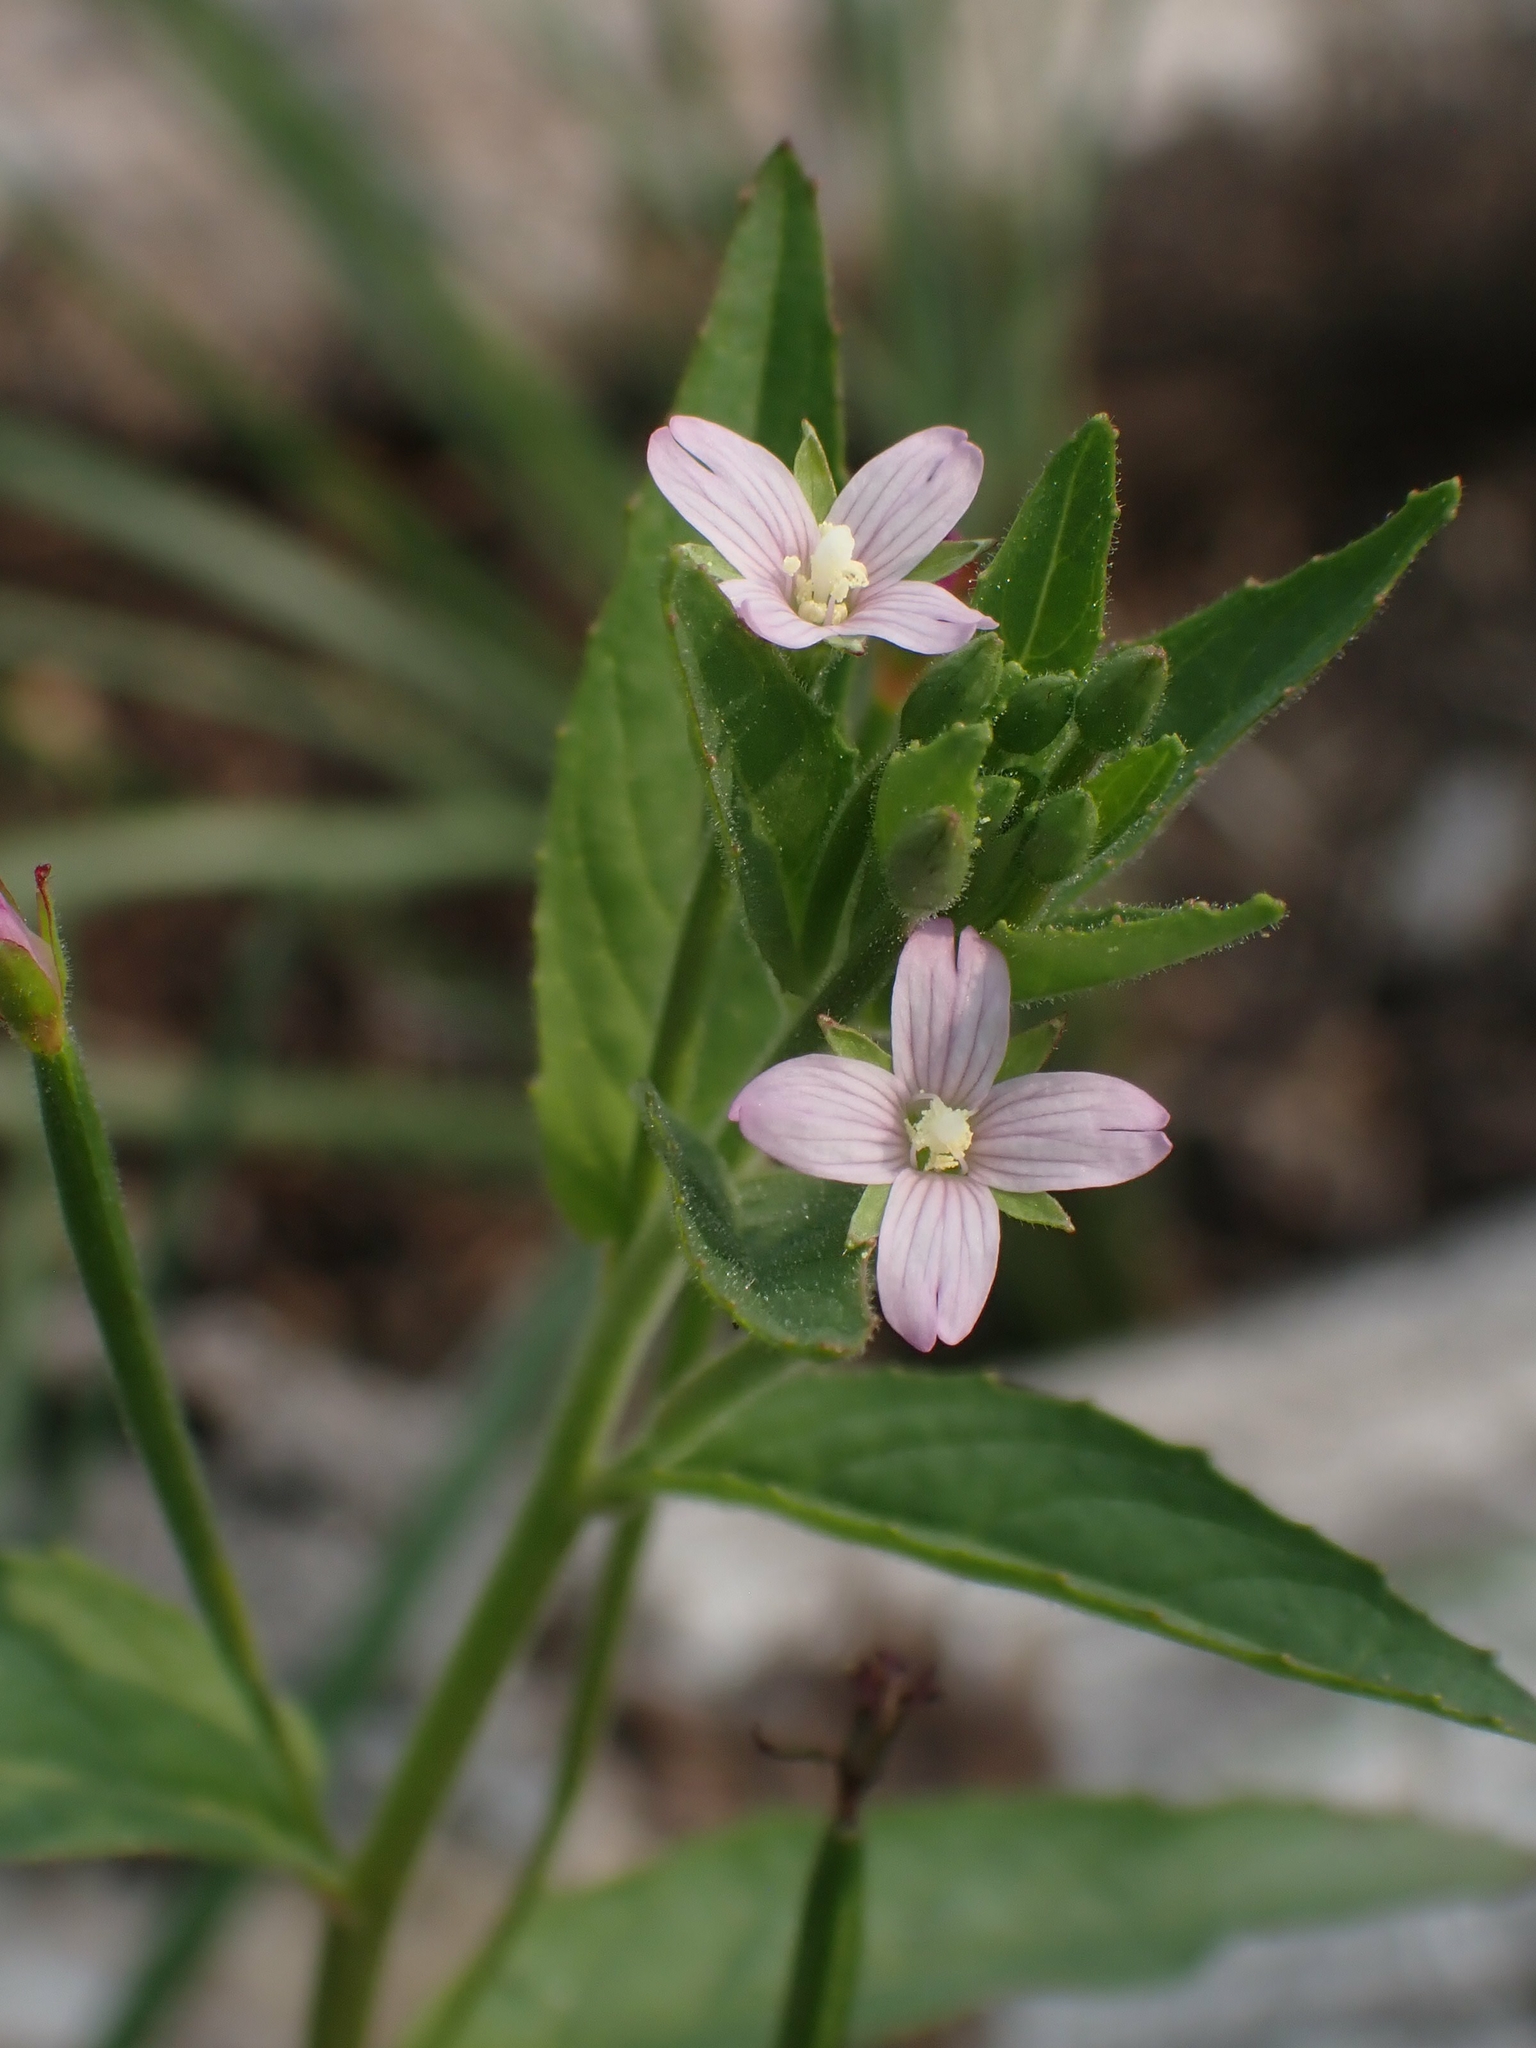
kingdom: Plantae
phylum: Tracheophyta
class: Magnoliopsida
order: Myrtales
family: Onagraceae
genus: Epilobium
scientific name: Epilobium ciliatum
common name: American willowherb
